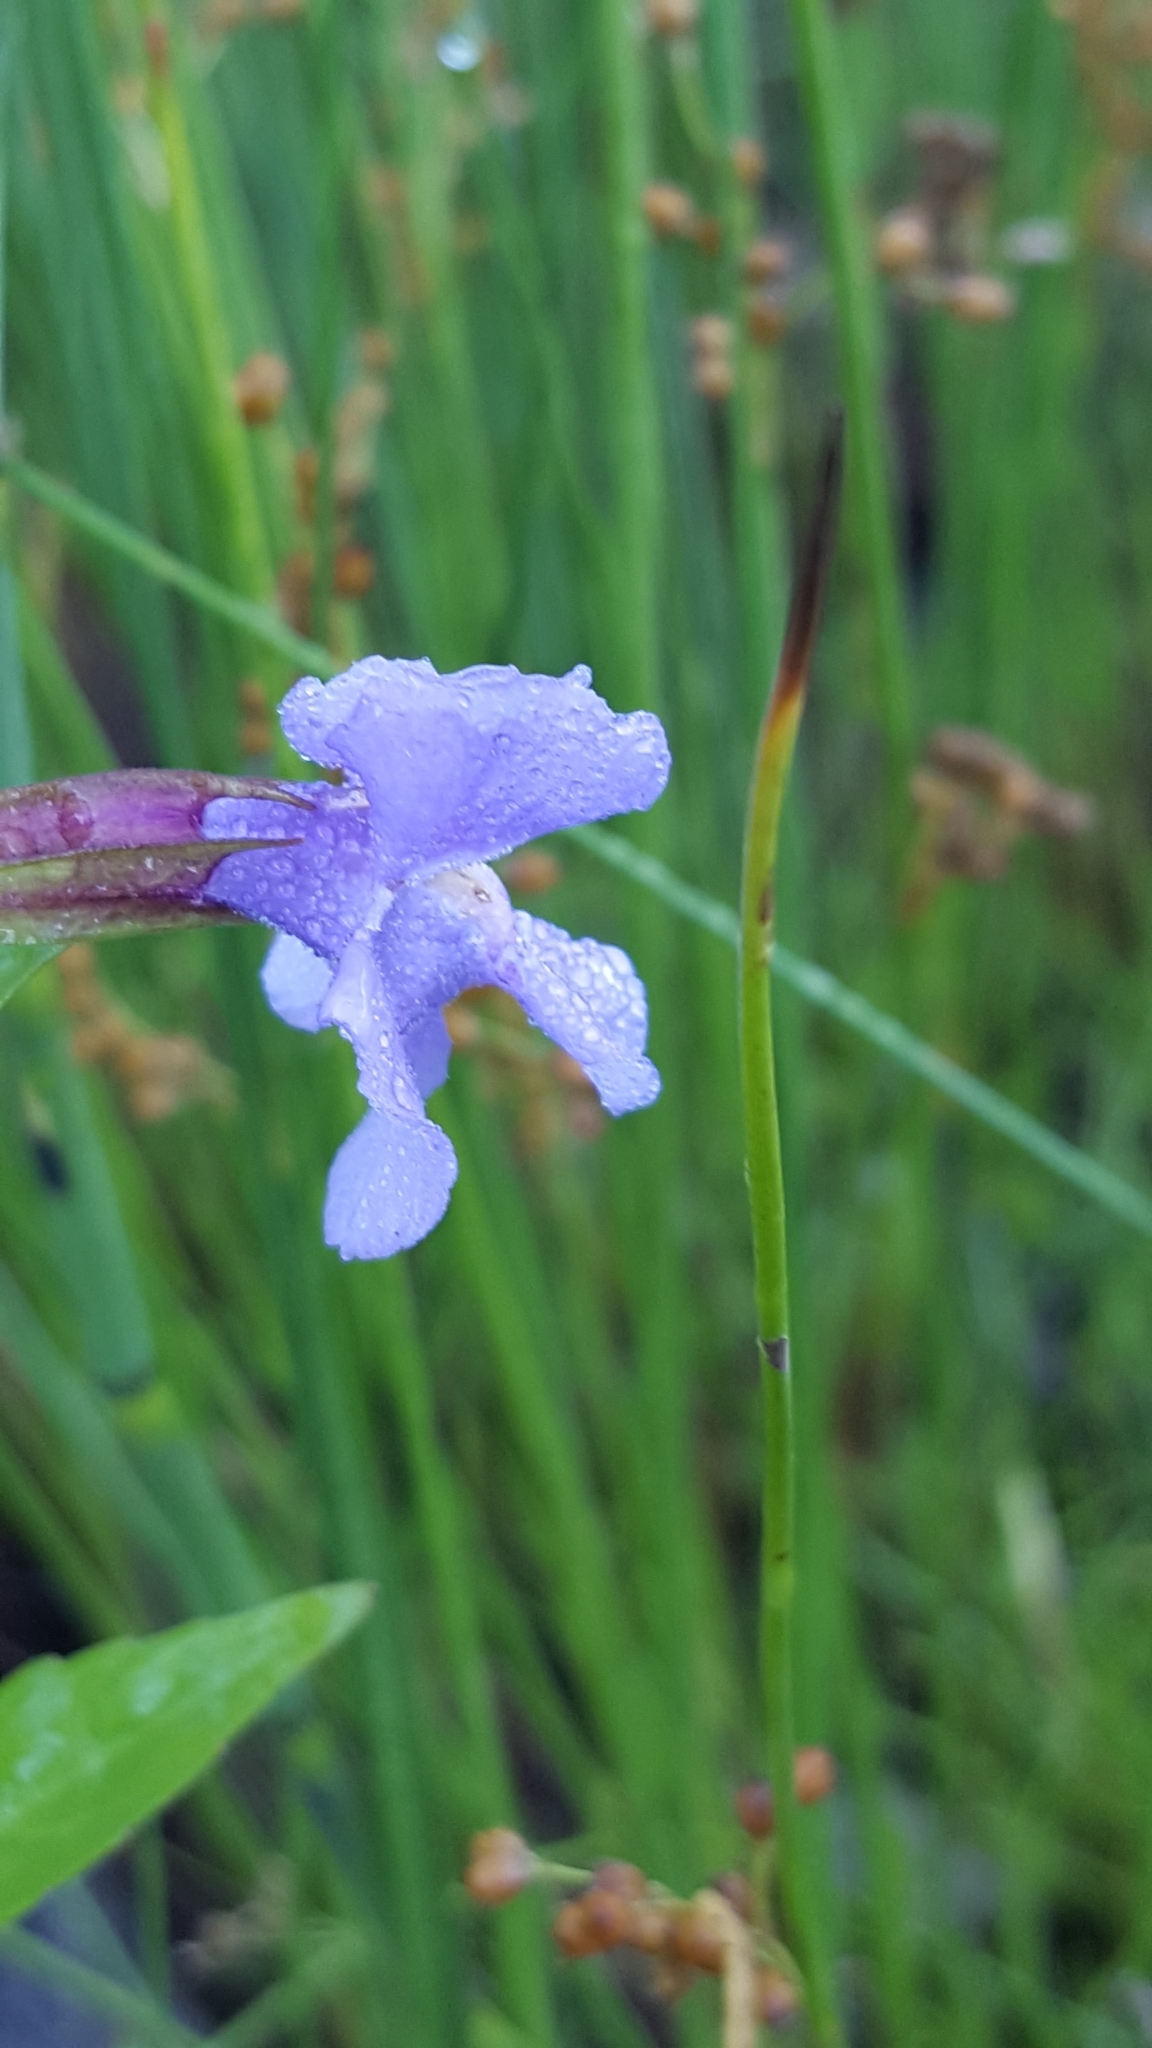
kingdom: Plantae
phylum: Tracheophyta
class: Magnoliopsida
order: Lamiales
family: Phrymaceae
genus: Mimulus
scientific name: Mimulus ringens
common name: Allegheny monkeyflower
